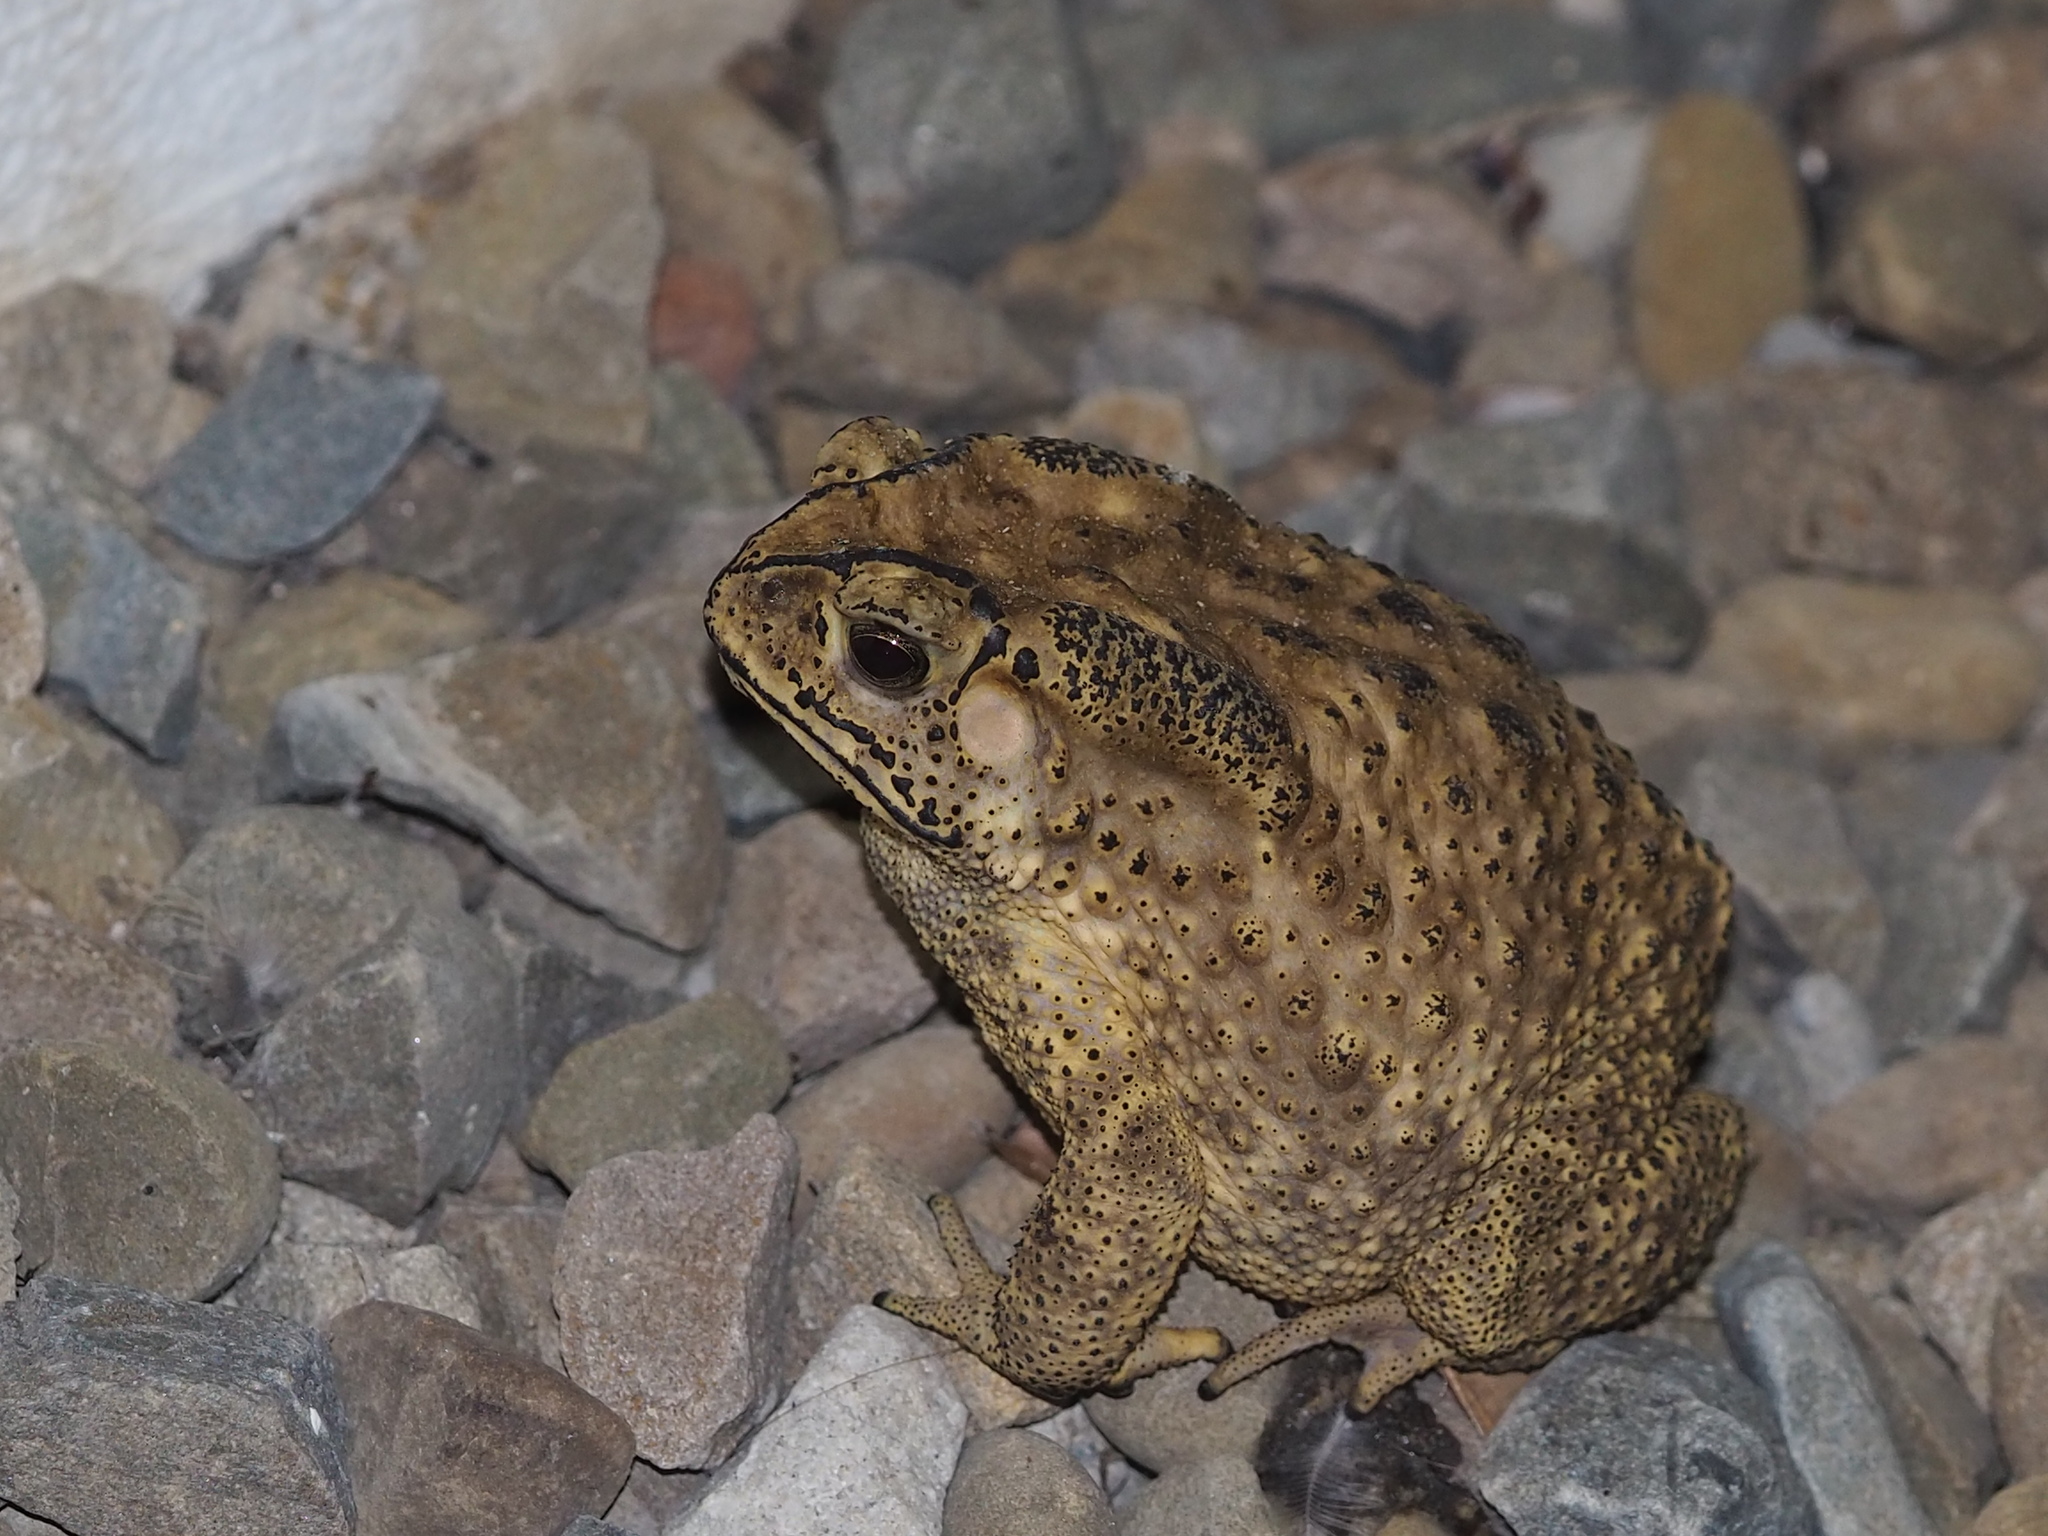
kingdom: Animalia
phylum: Chordata
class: Amphibia
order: Anura
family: Bufonidae
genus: Duttaphrynus
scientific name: Duttaphrynus melanostictus
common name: Common sunda toad
